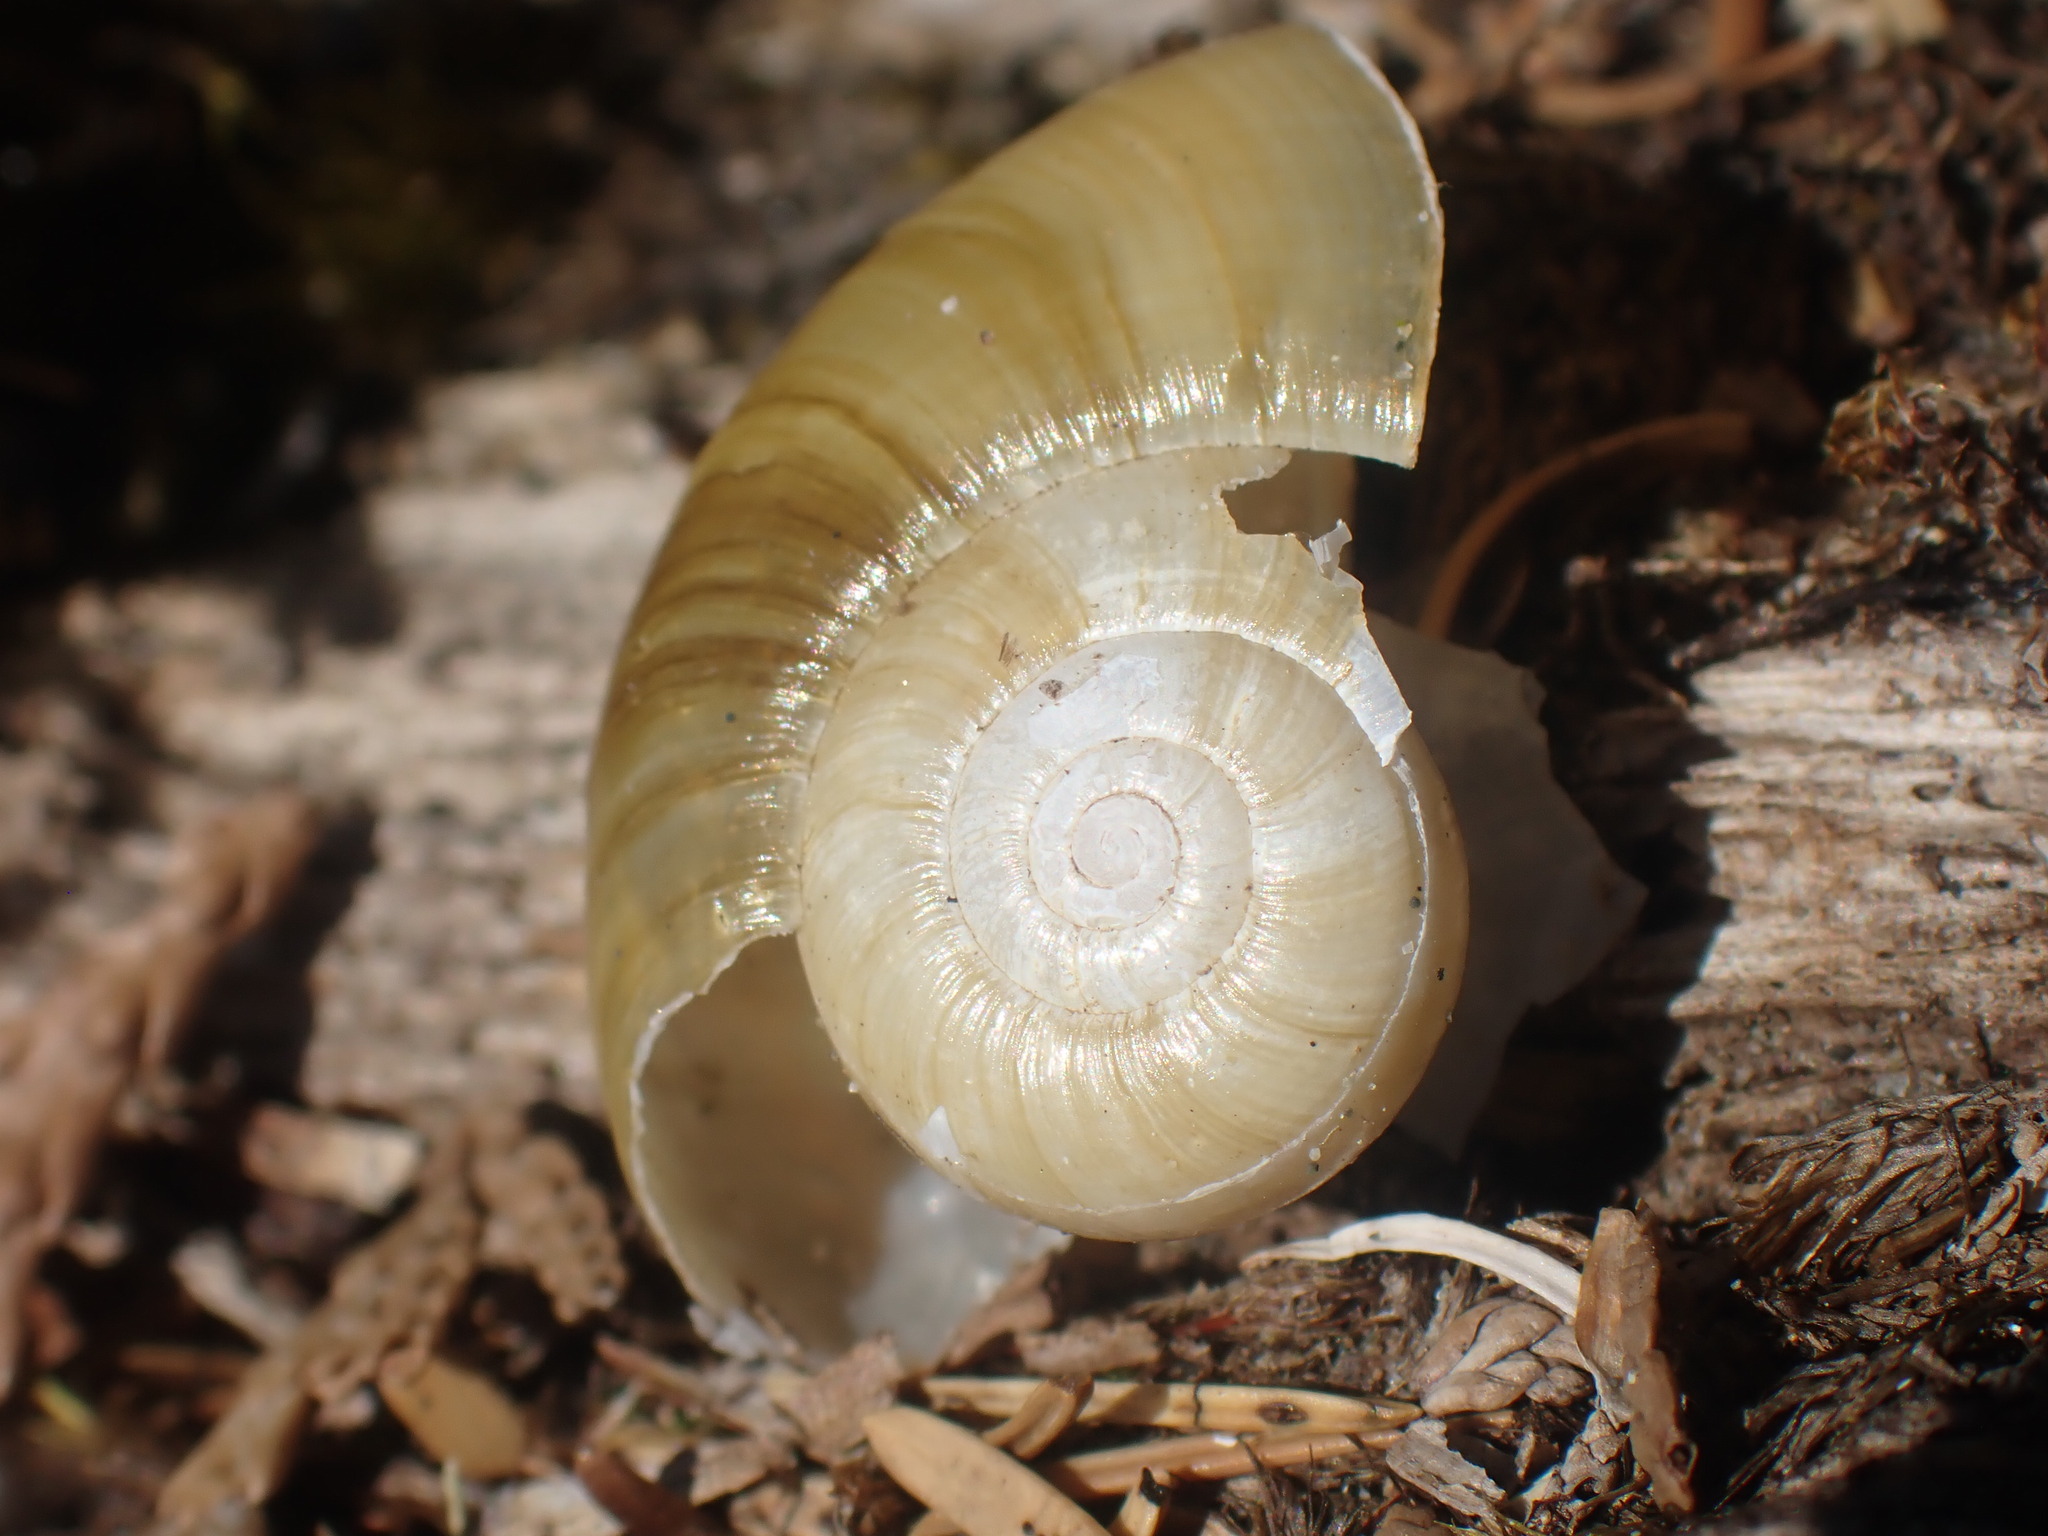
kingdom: Animalia
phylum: Mollusca
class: Gastropoda
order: Stylommatophora
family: Haplotrematidae
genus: Haplotrema
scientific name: Haplotrema vancouverense
